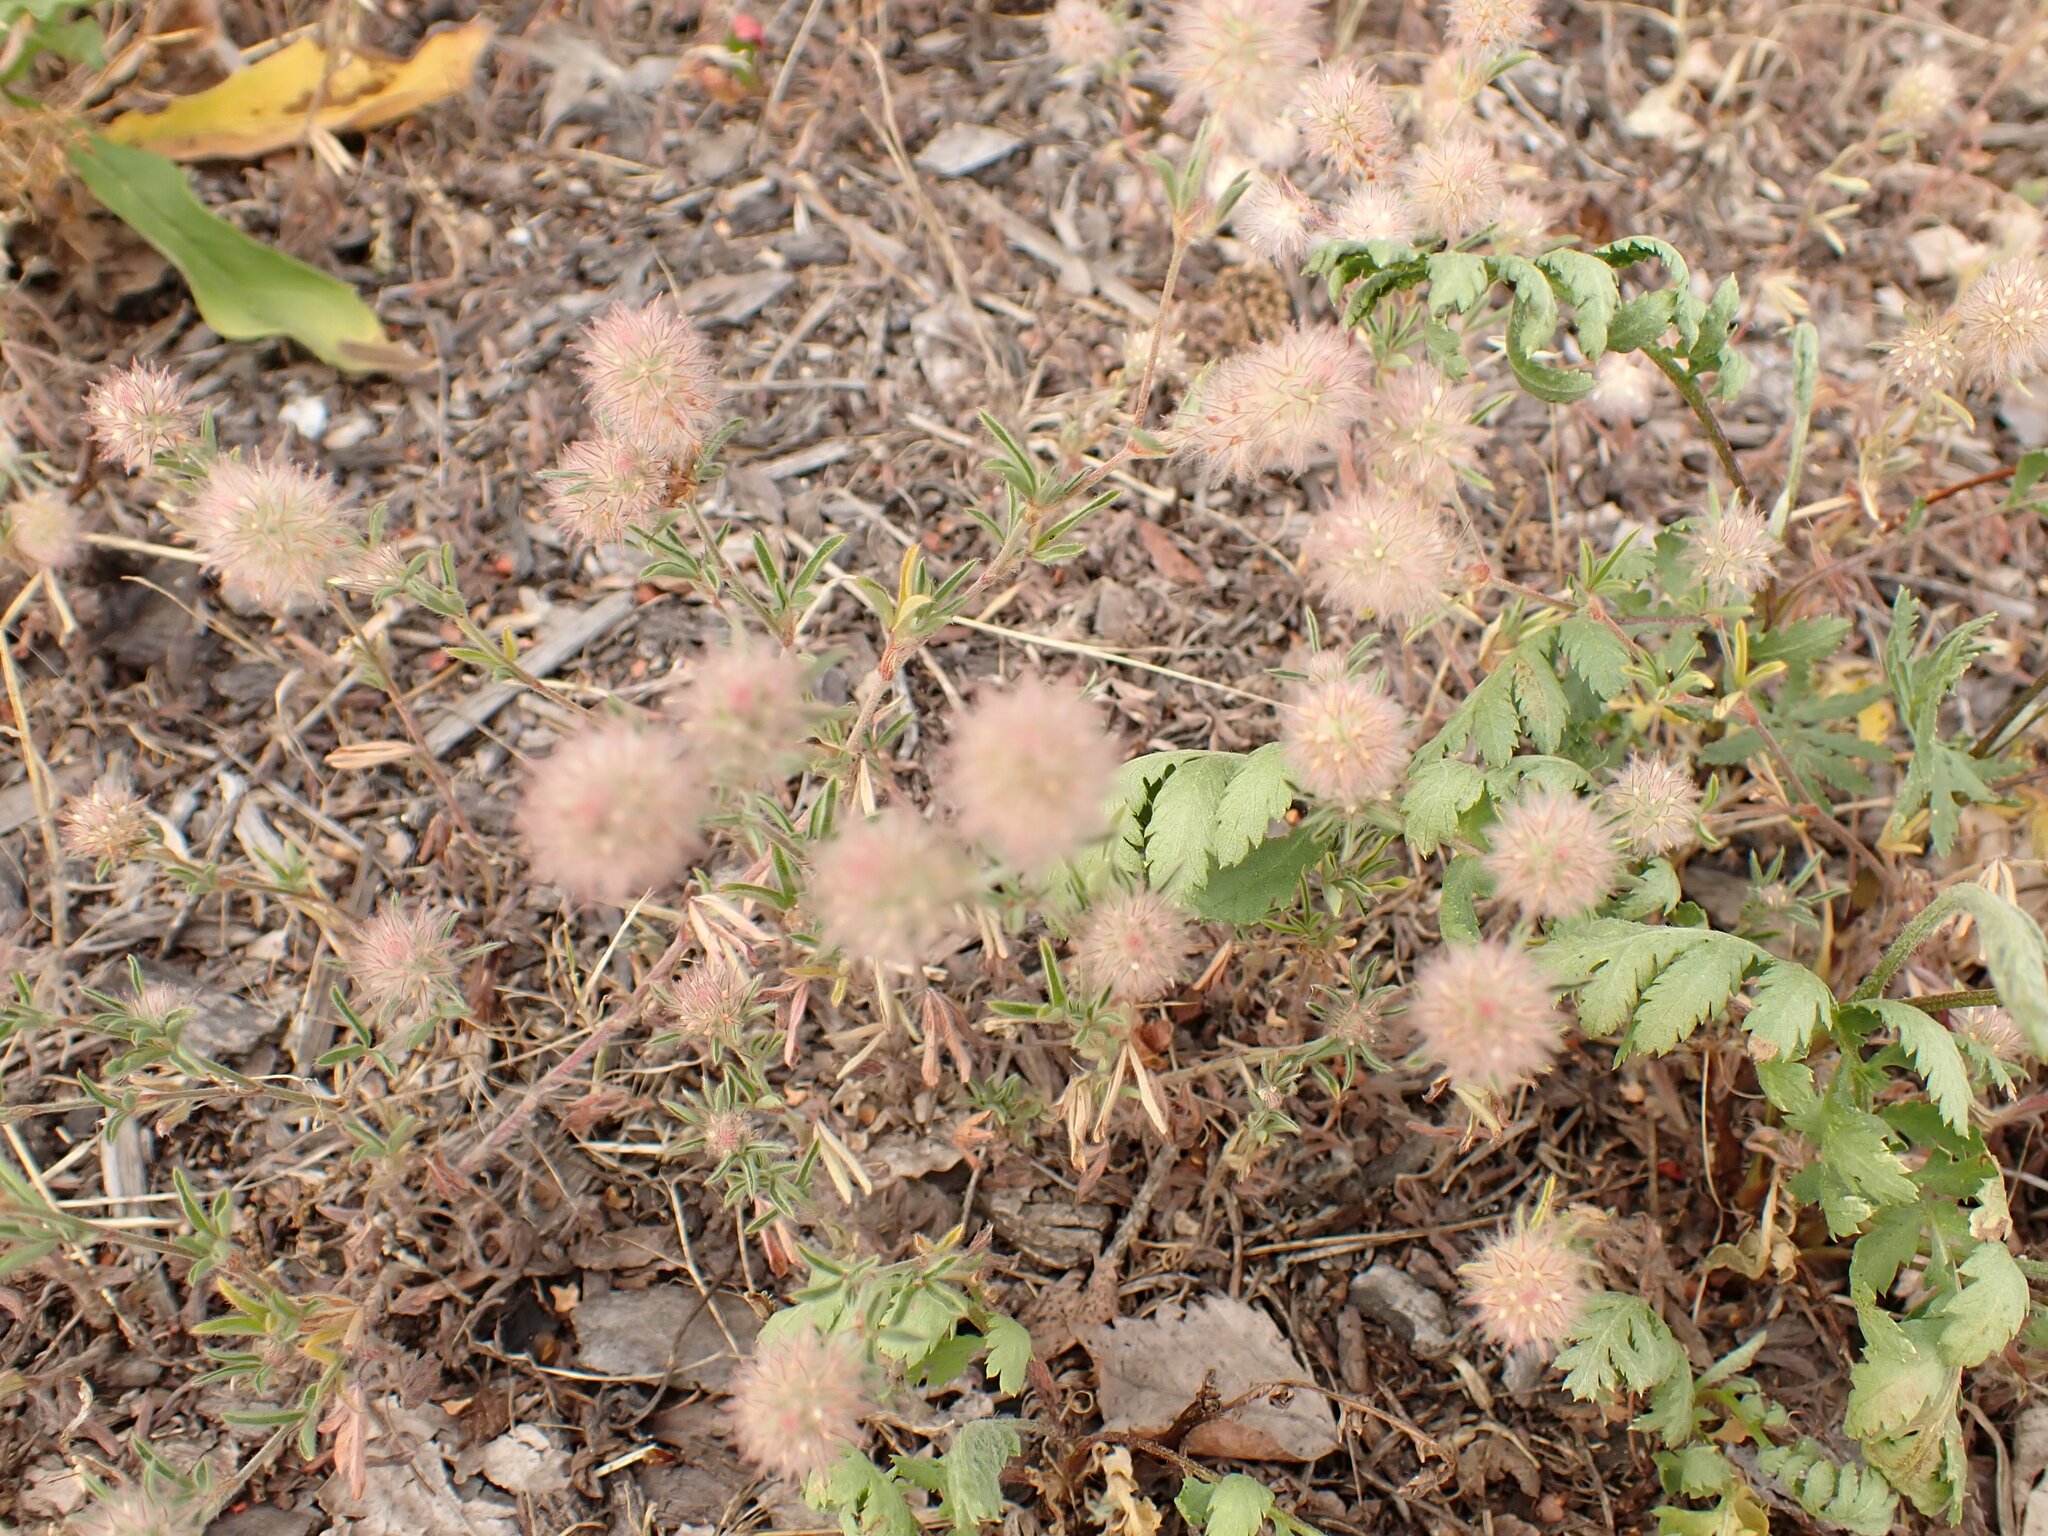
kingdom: Plantae
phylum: Tracheophyta
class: Magnoliopsida
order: Fabales
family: Fabaceae
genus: Trifolium
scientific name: Trifolium arvense
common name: Hare's-foot clover
